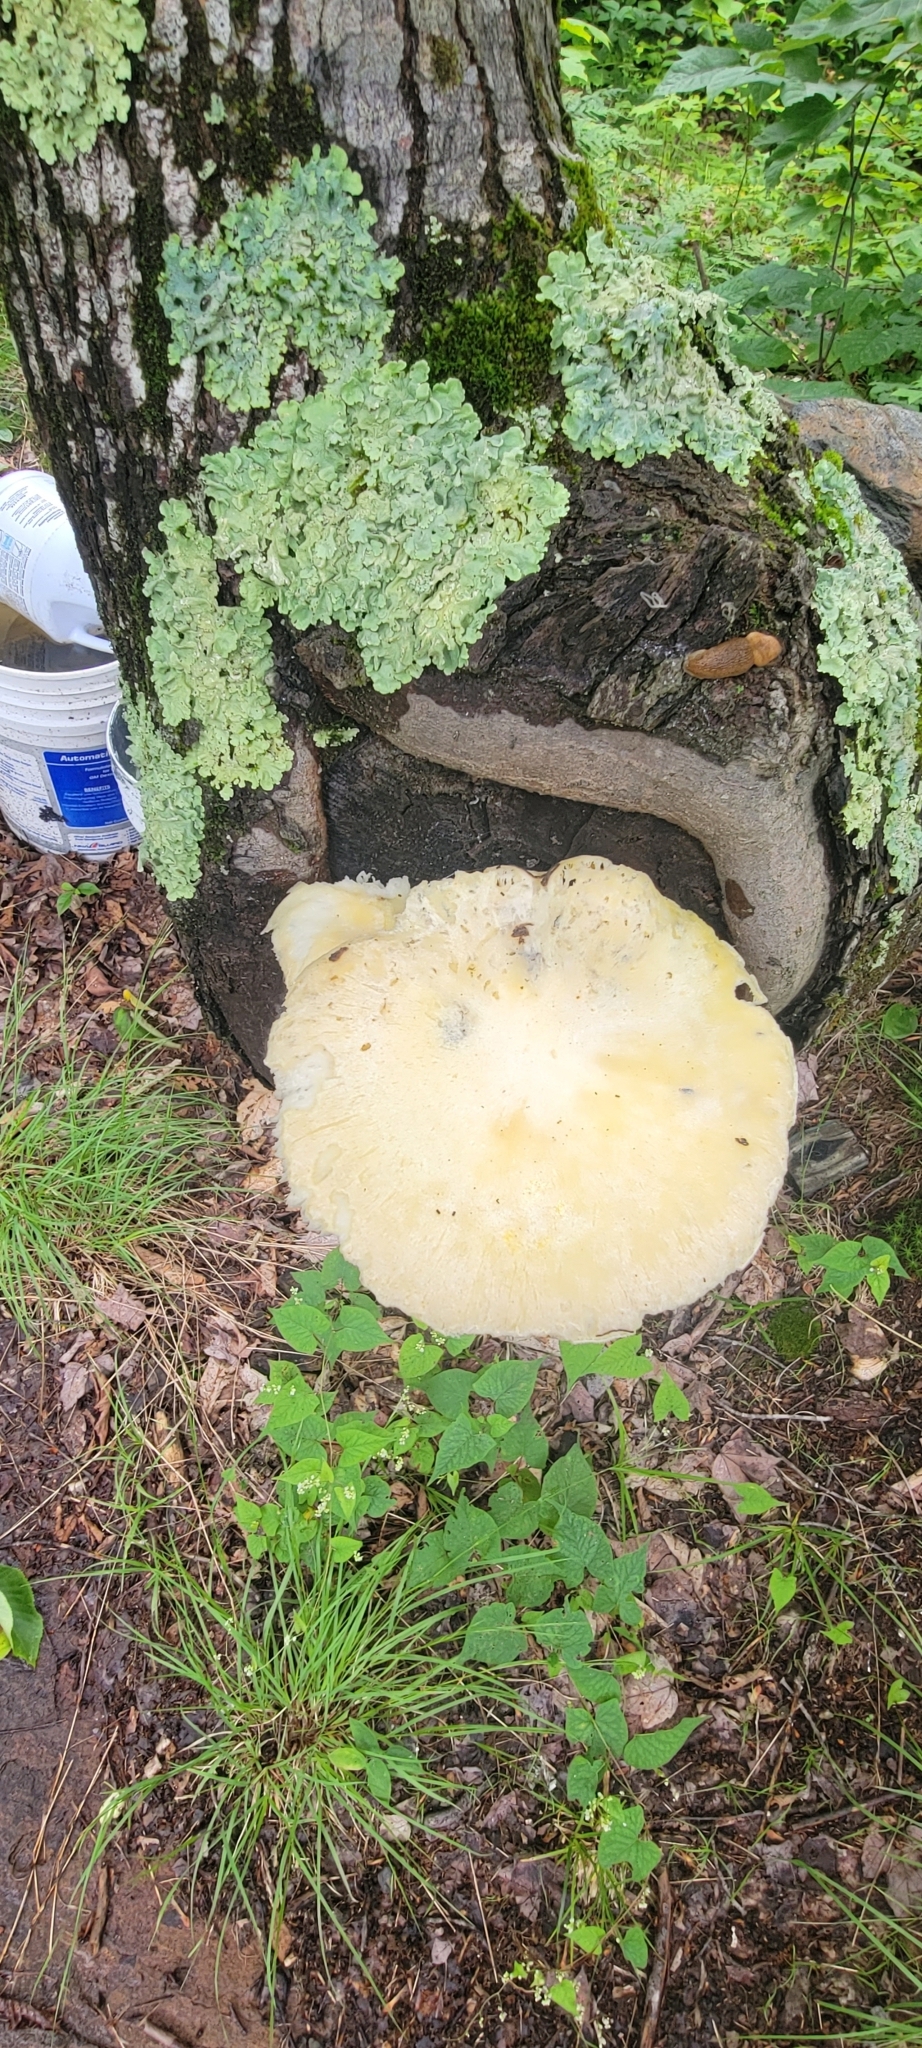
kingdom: Fungi
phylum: Basidiomycota
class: Agaricomycetes
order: Polyporales
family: Polyporaceae
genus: Lentinus
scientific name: Lentinus levis
